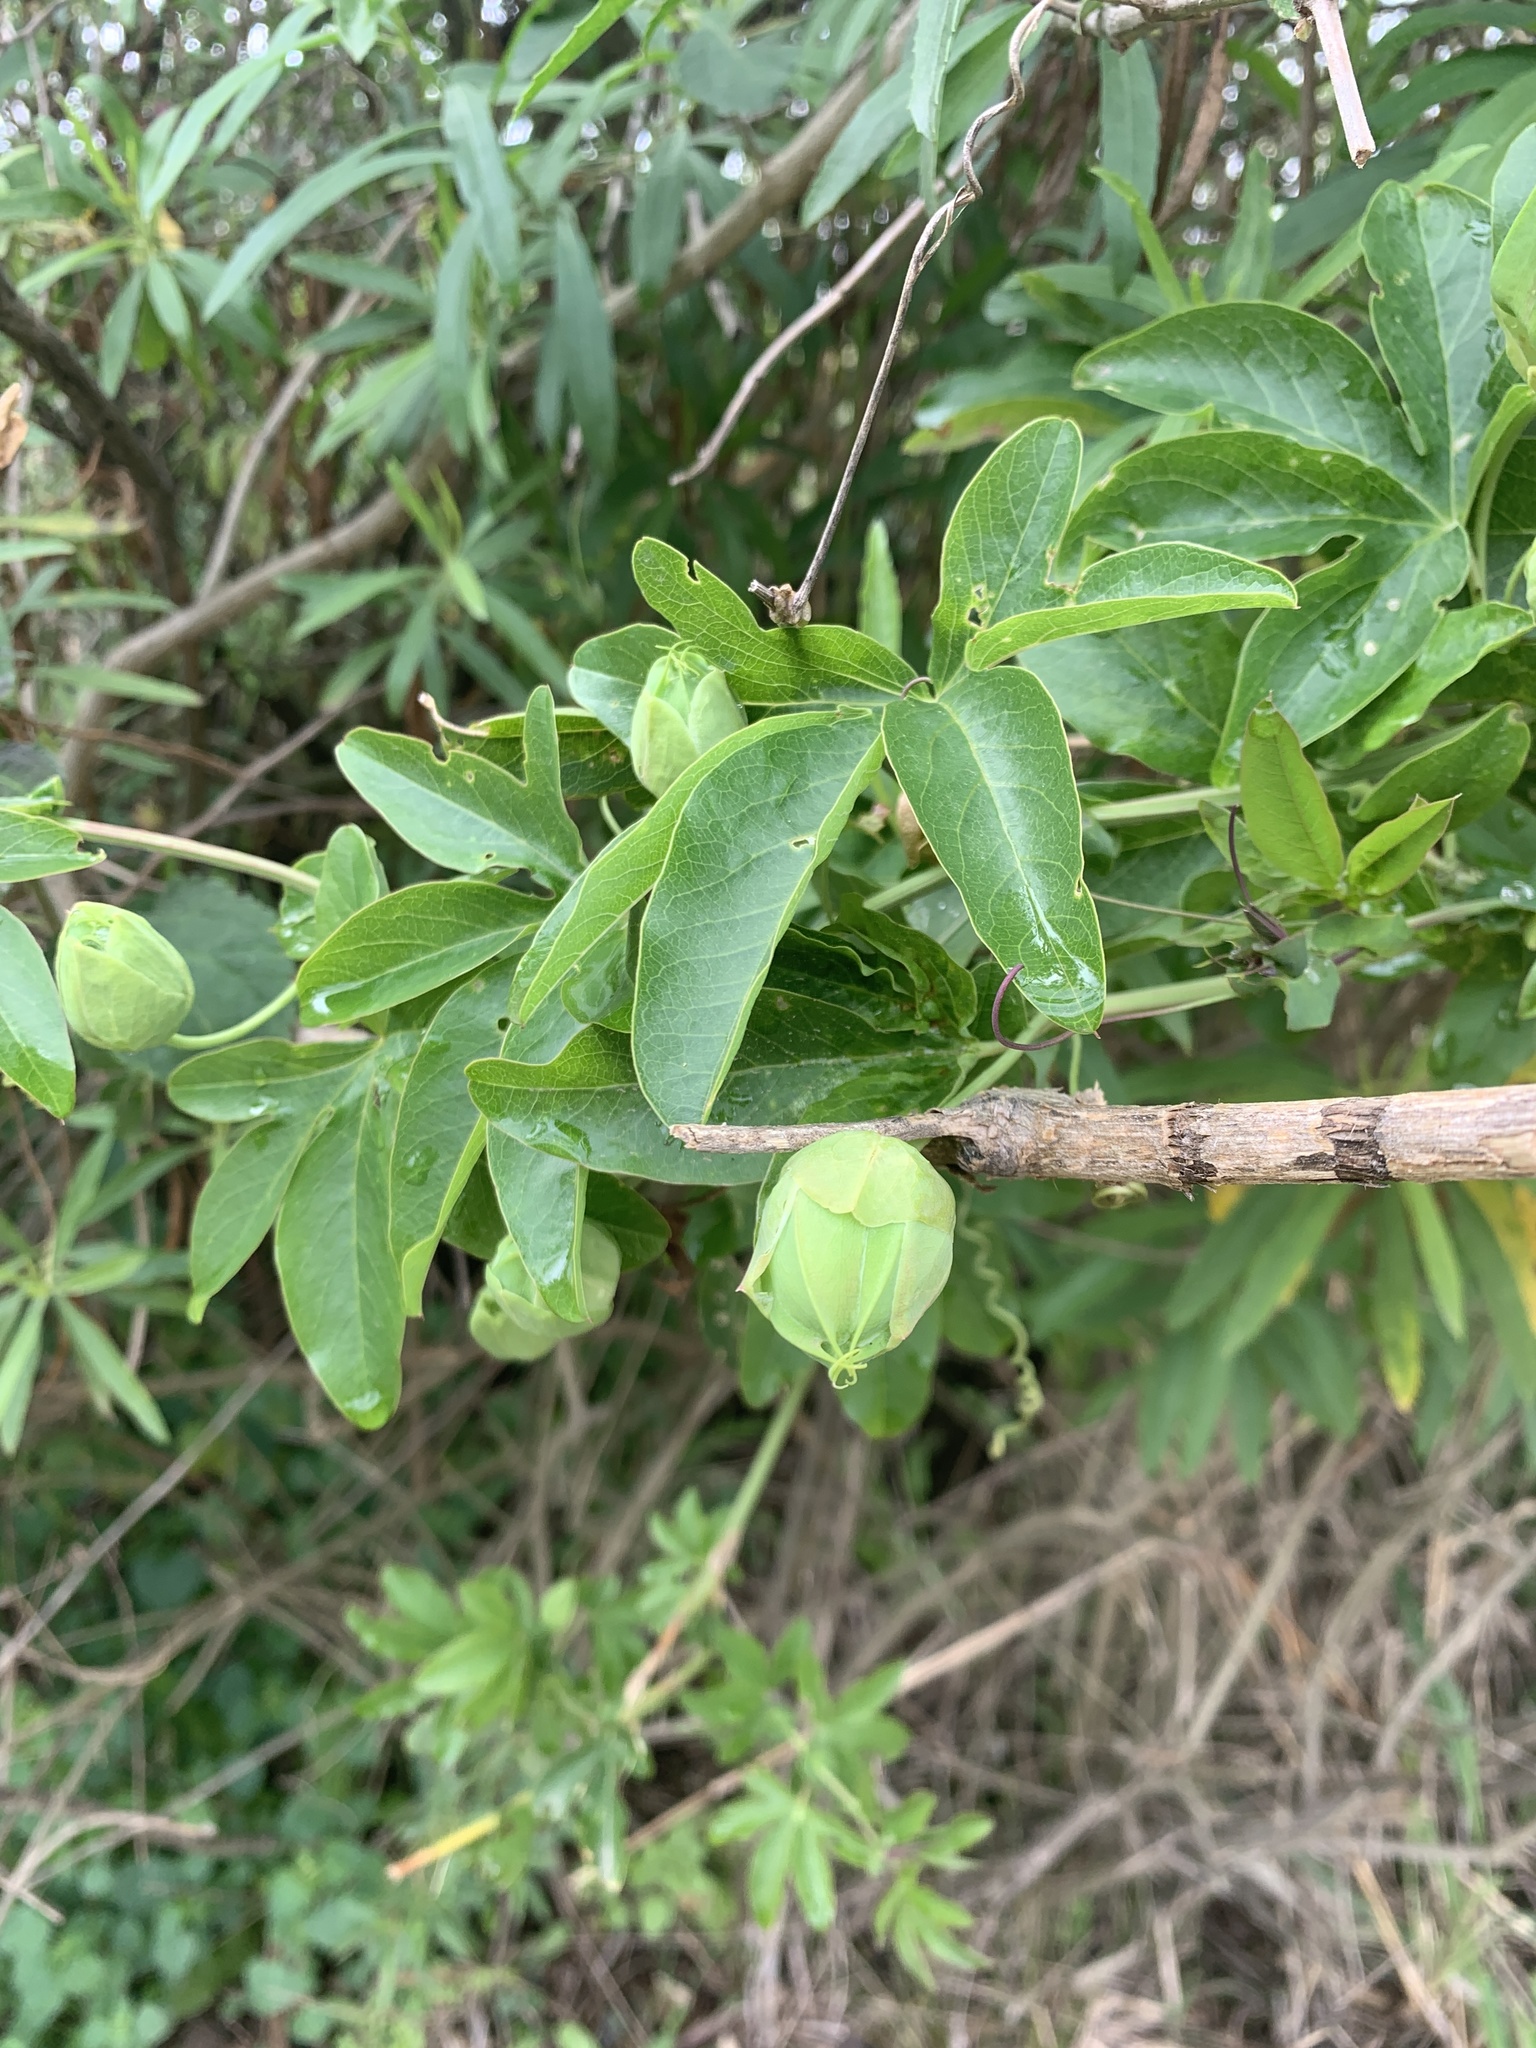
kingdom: Plantae
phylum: Tracheophyta
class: Magnoliopsida
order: Malpighiales
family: Passifloraceae
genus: Passiflora
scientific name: Passiflora caerulea
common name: Blue passionflower
